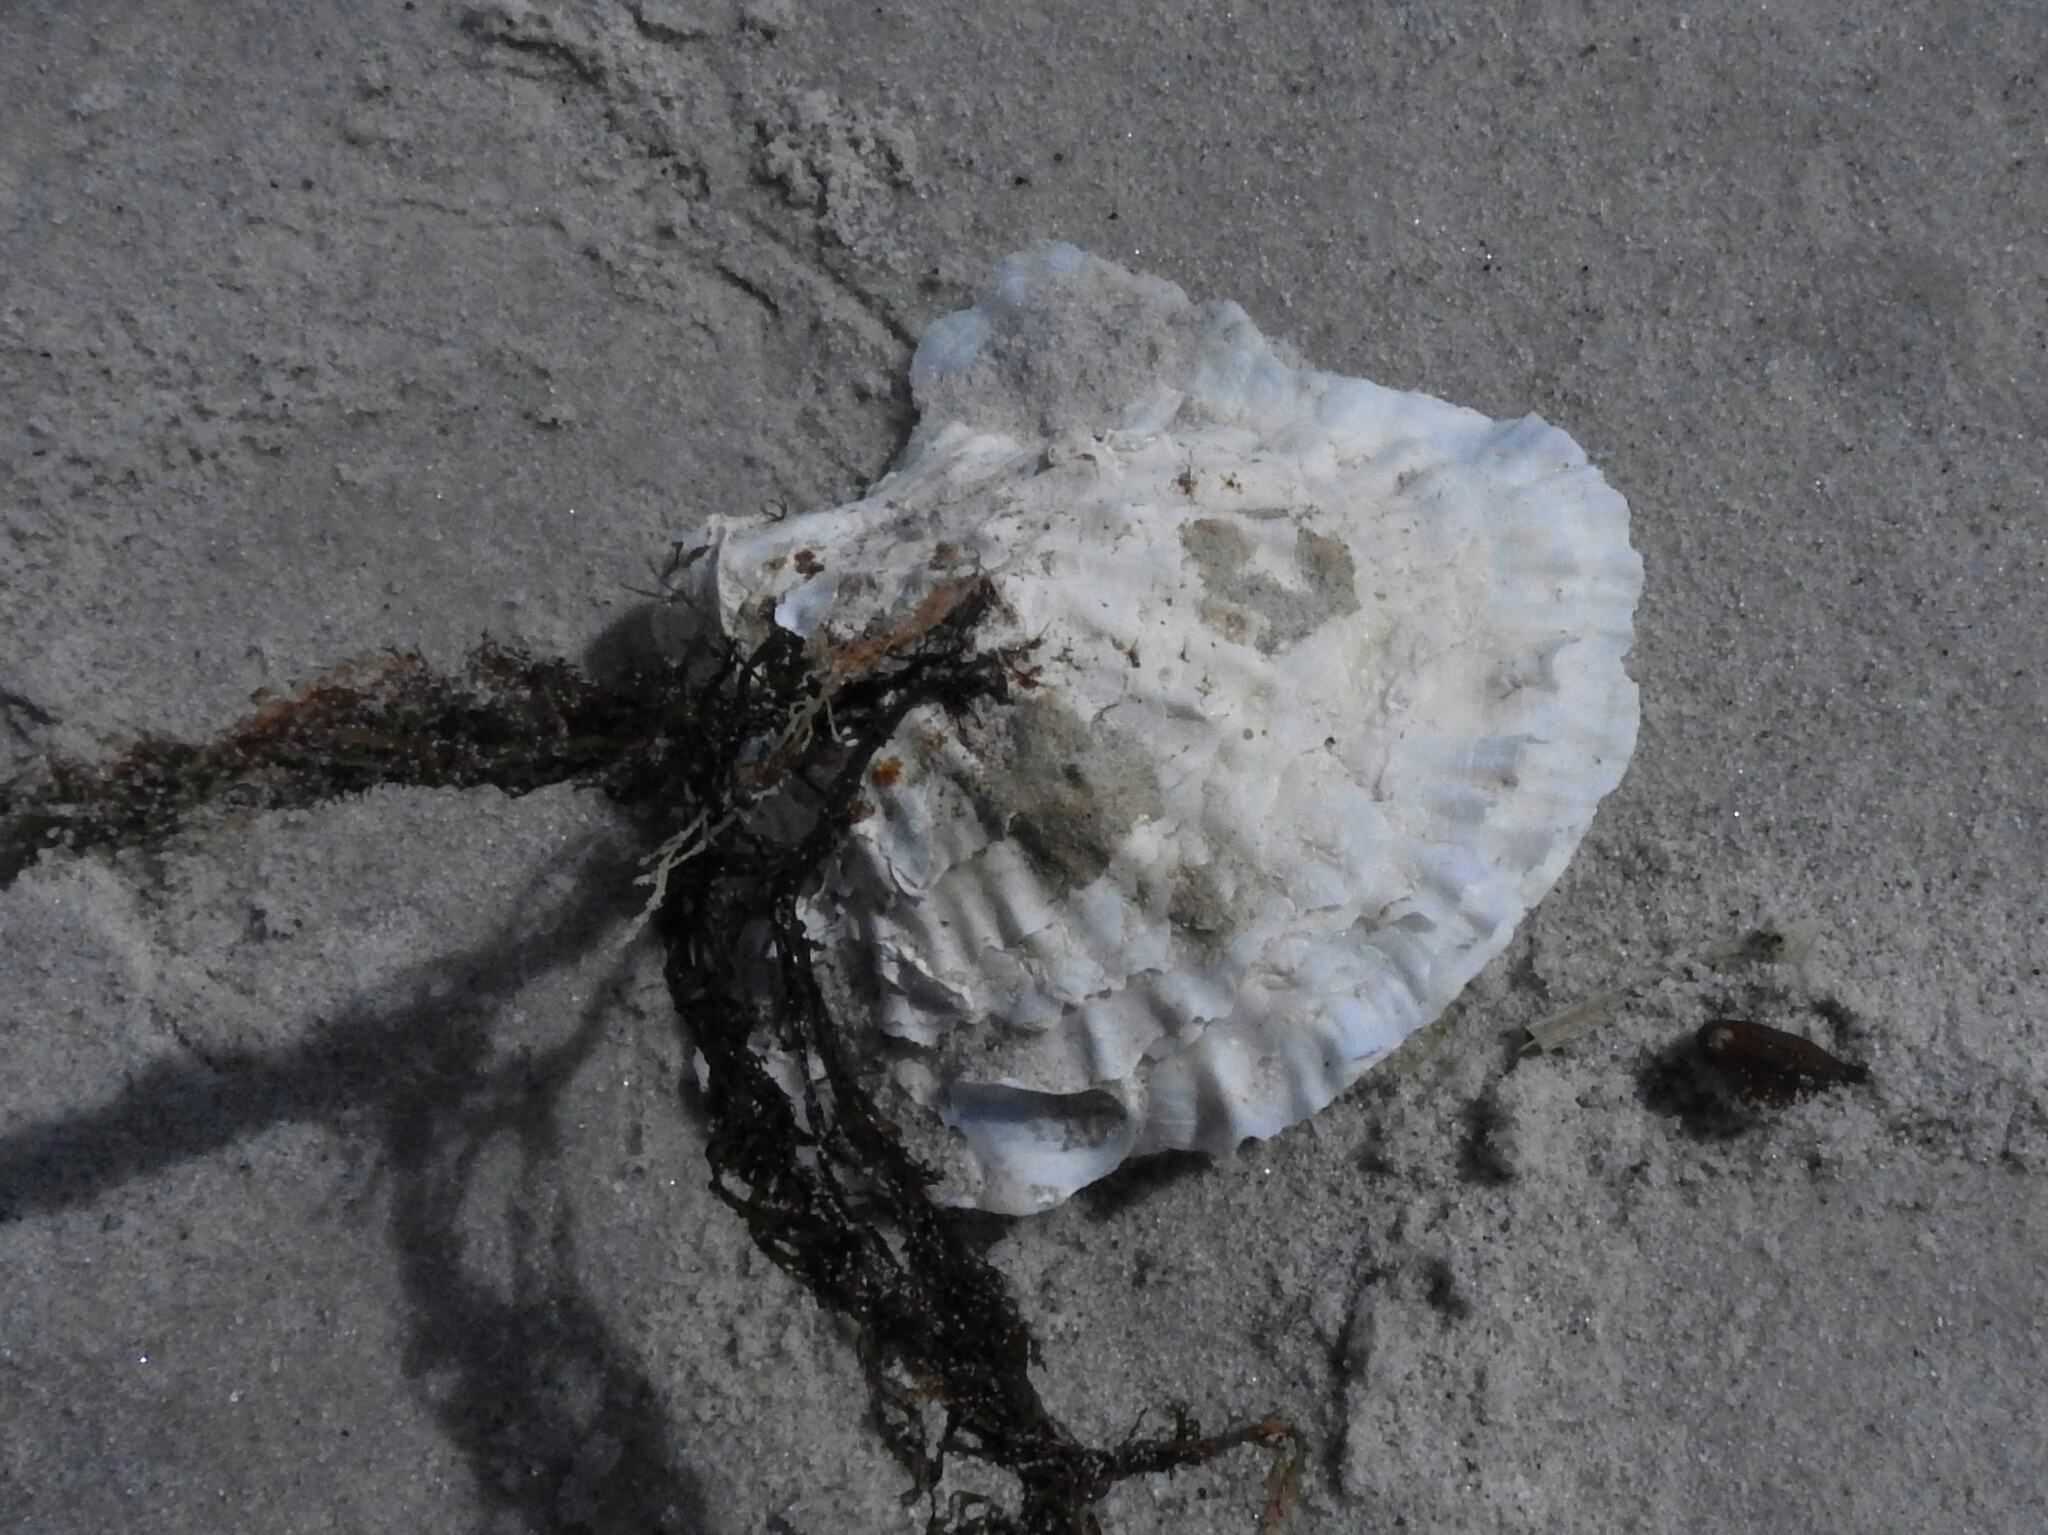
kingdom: Animalia
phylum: Mollusca
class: Bivalvia
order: Ostreida
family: Ostreidae
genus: Ostrea
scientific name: Ostrea angasi
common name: Angasi oyster
